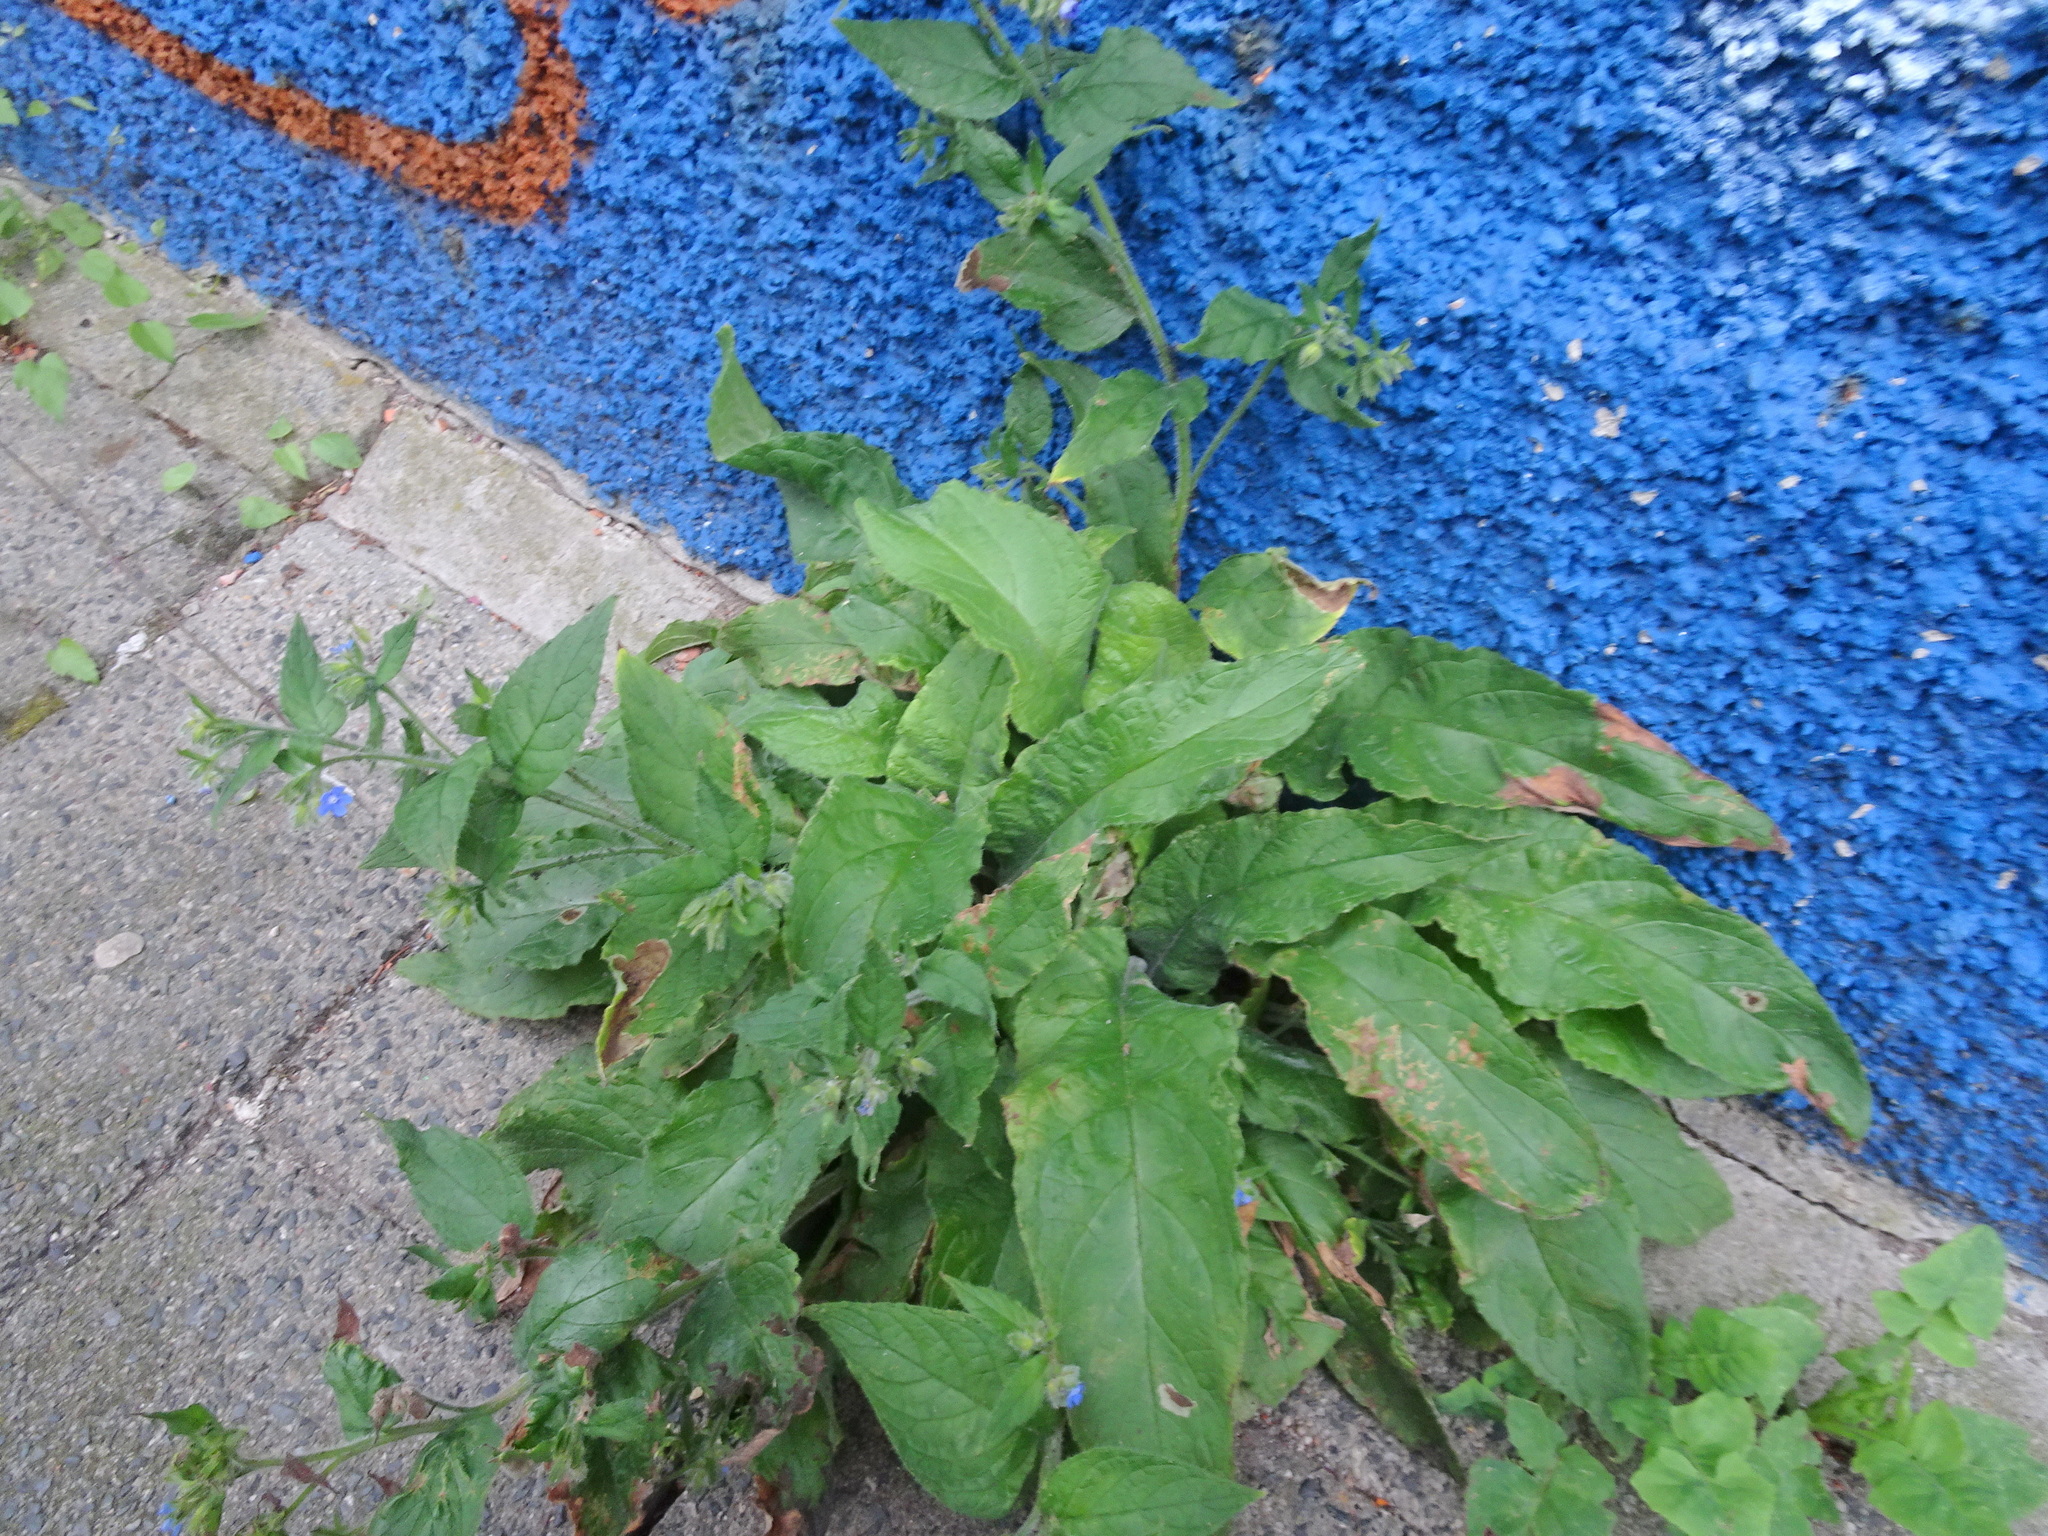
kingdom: Plantae
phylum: Tracheophyta
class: Magnoliopsida
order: Boraginales
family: Boraginaceae
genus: Pentaglottis
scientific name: Pentaglottis sempervirens
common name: Green alkanet
